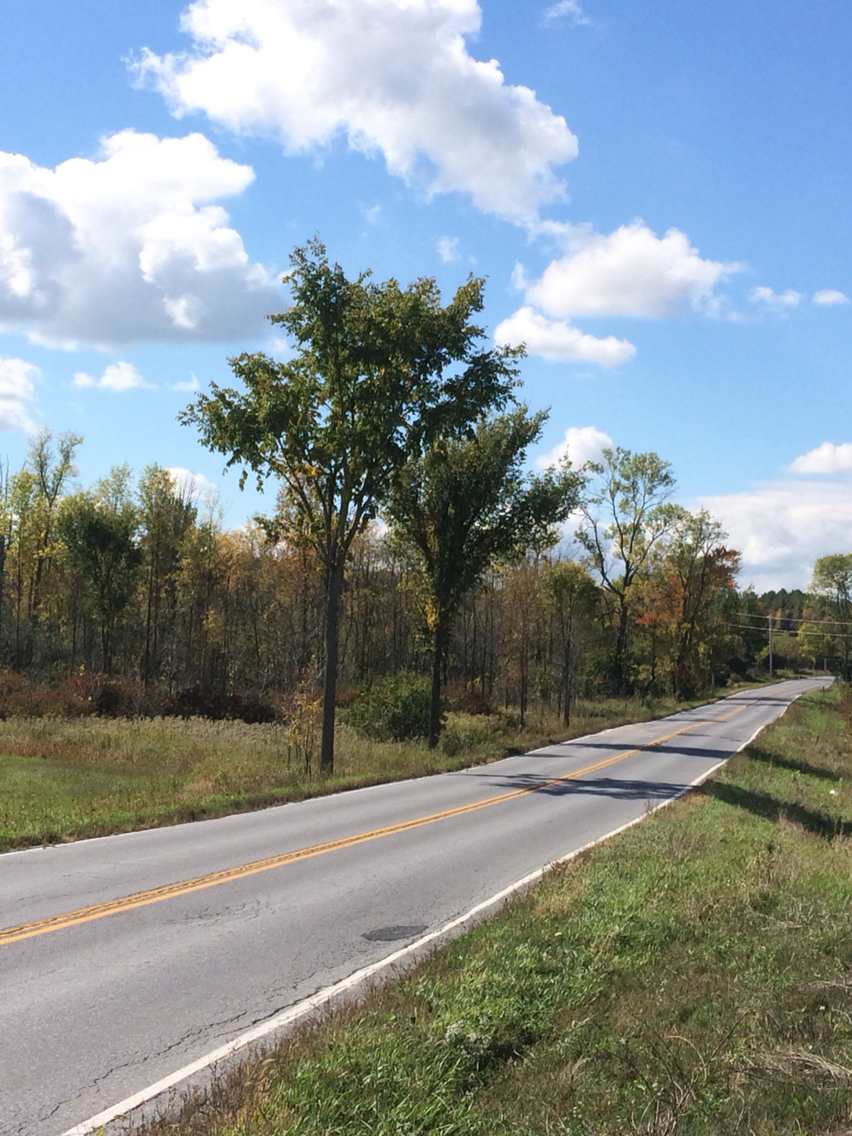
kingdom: Plantae
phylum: Tracheophyta
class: Magnoliopsida
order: Rosales
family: Ulmaceae
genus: Ulmus
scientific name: Ulmus americana
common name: American elm
